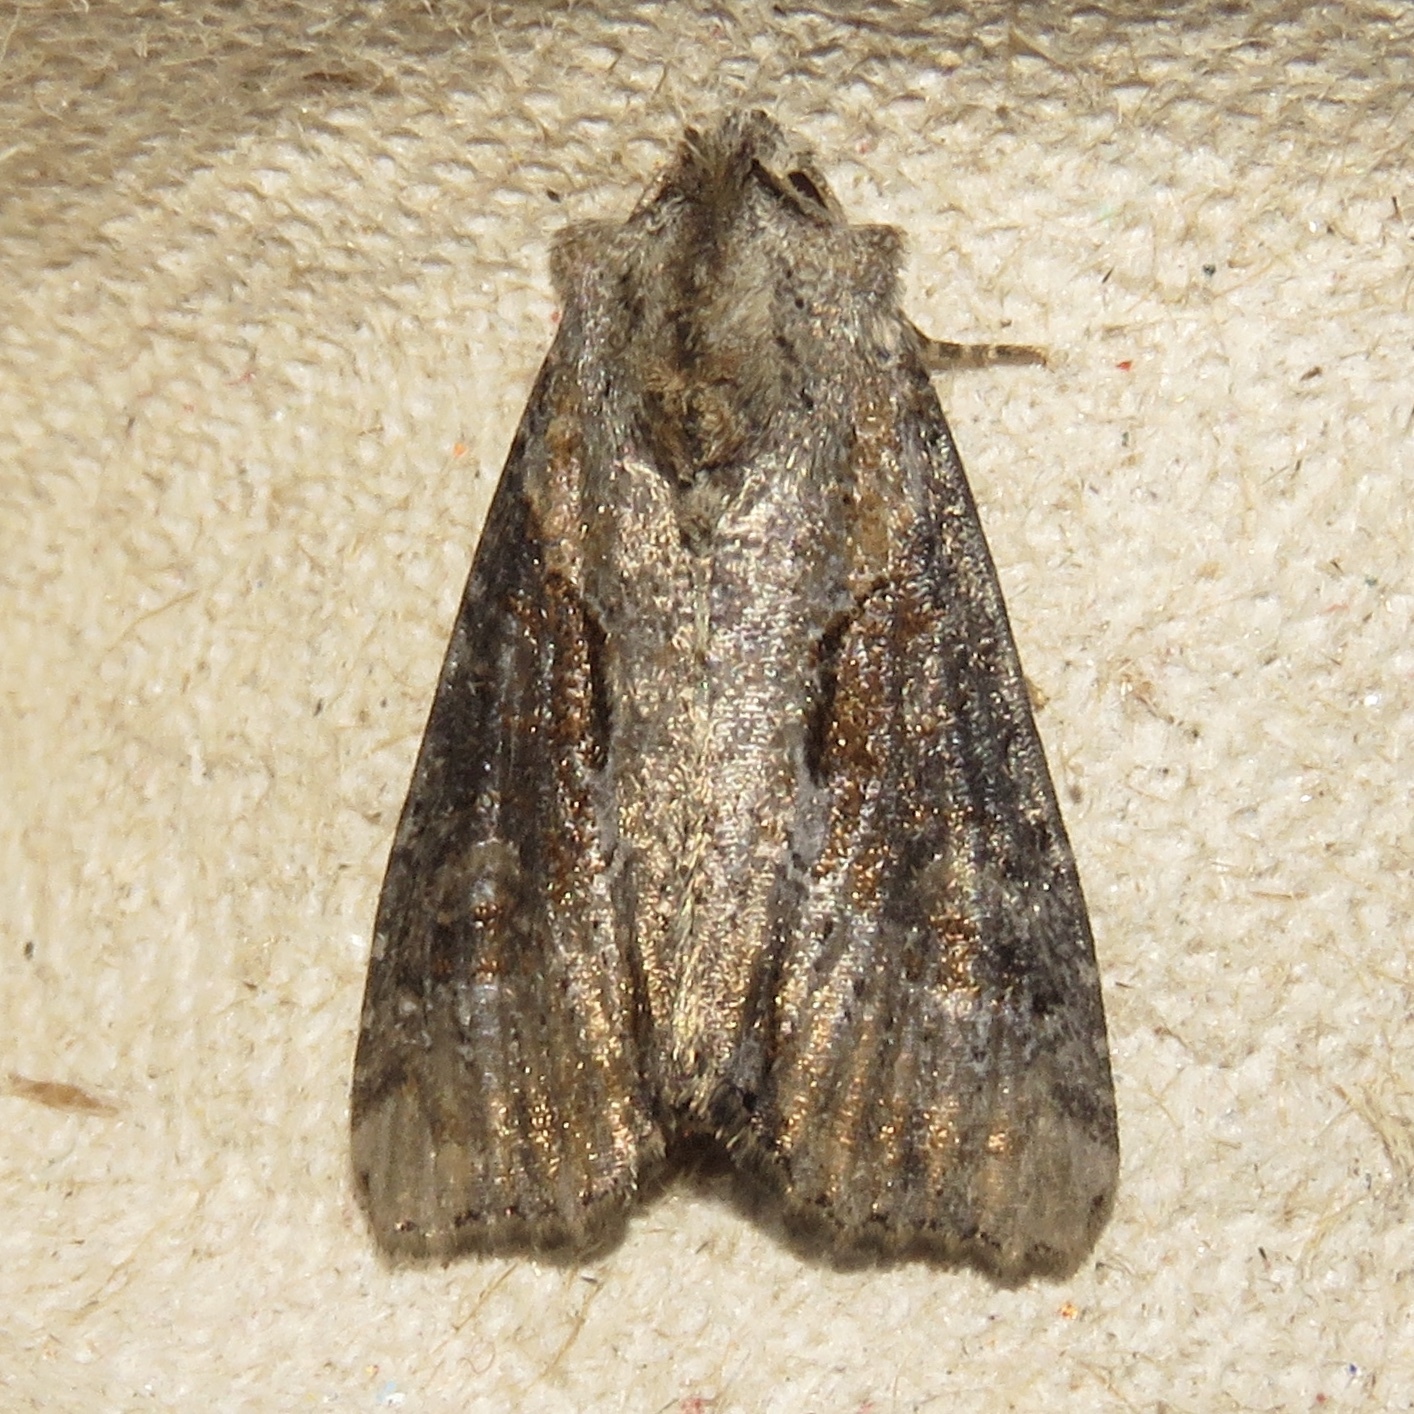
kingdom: Animalia
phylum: Arthropoda
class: Insecta
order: Lepidoptera
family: Noctuidae
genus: Lateroligia
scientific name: Lateroligia ophiogramma
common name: Double lobed
